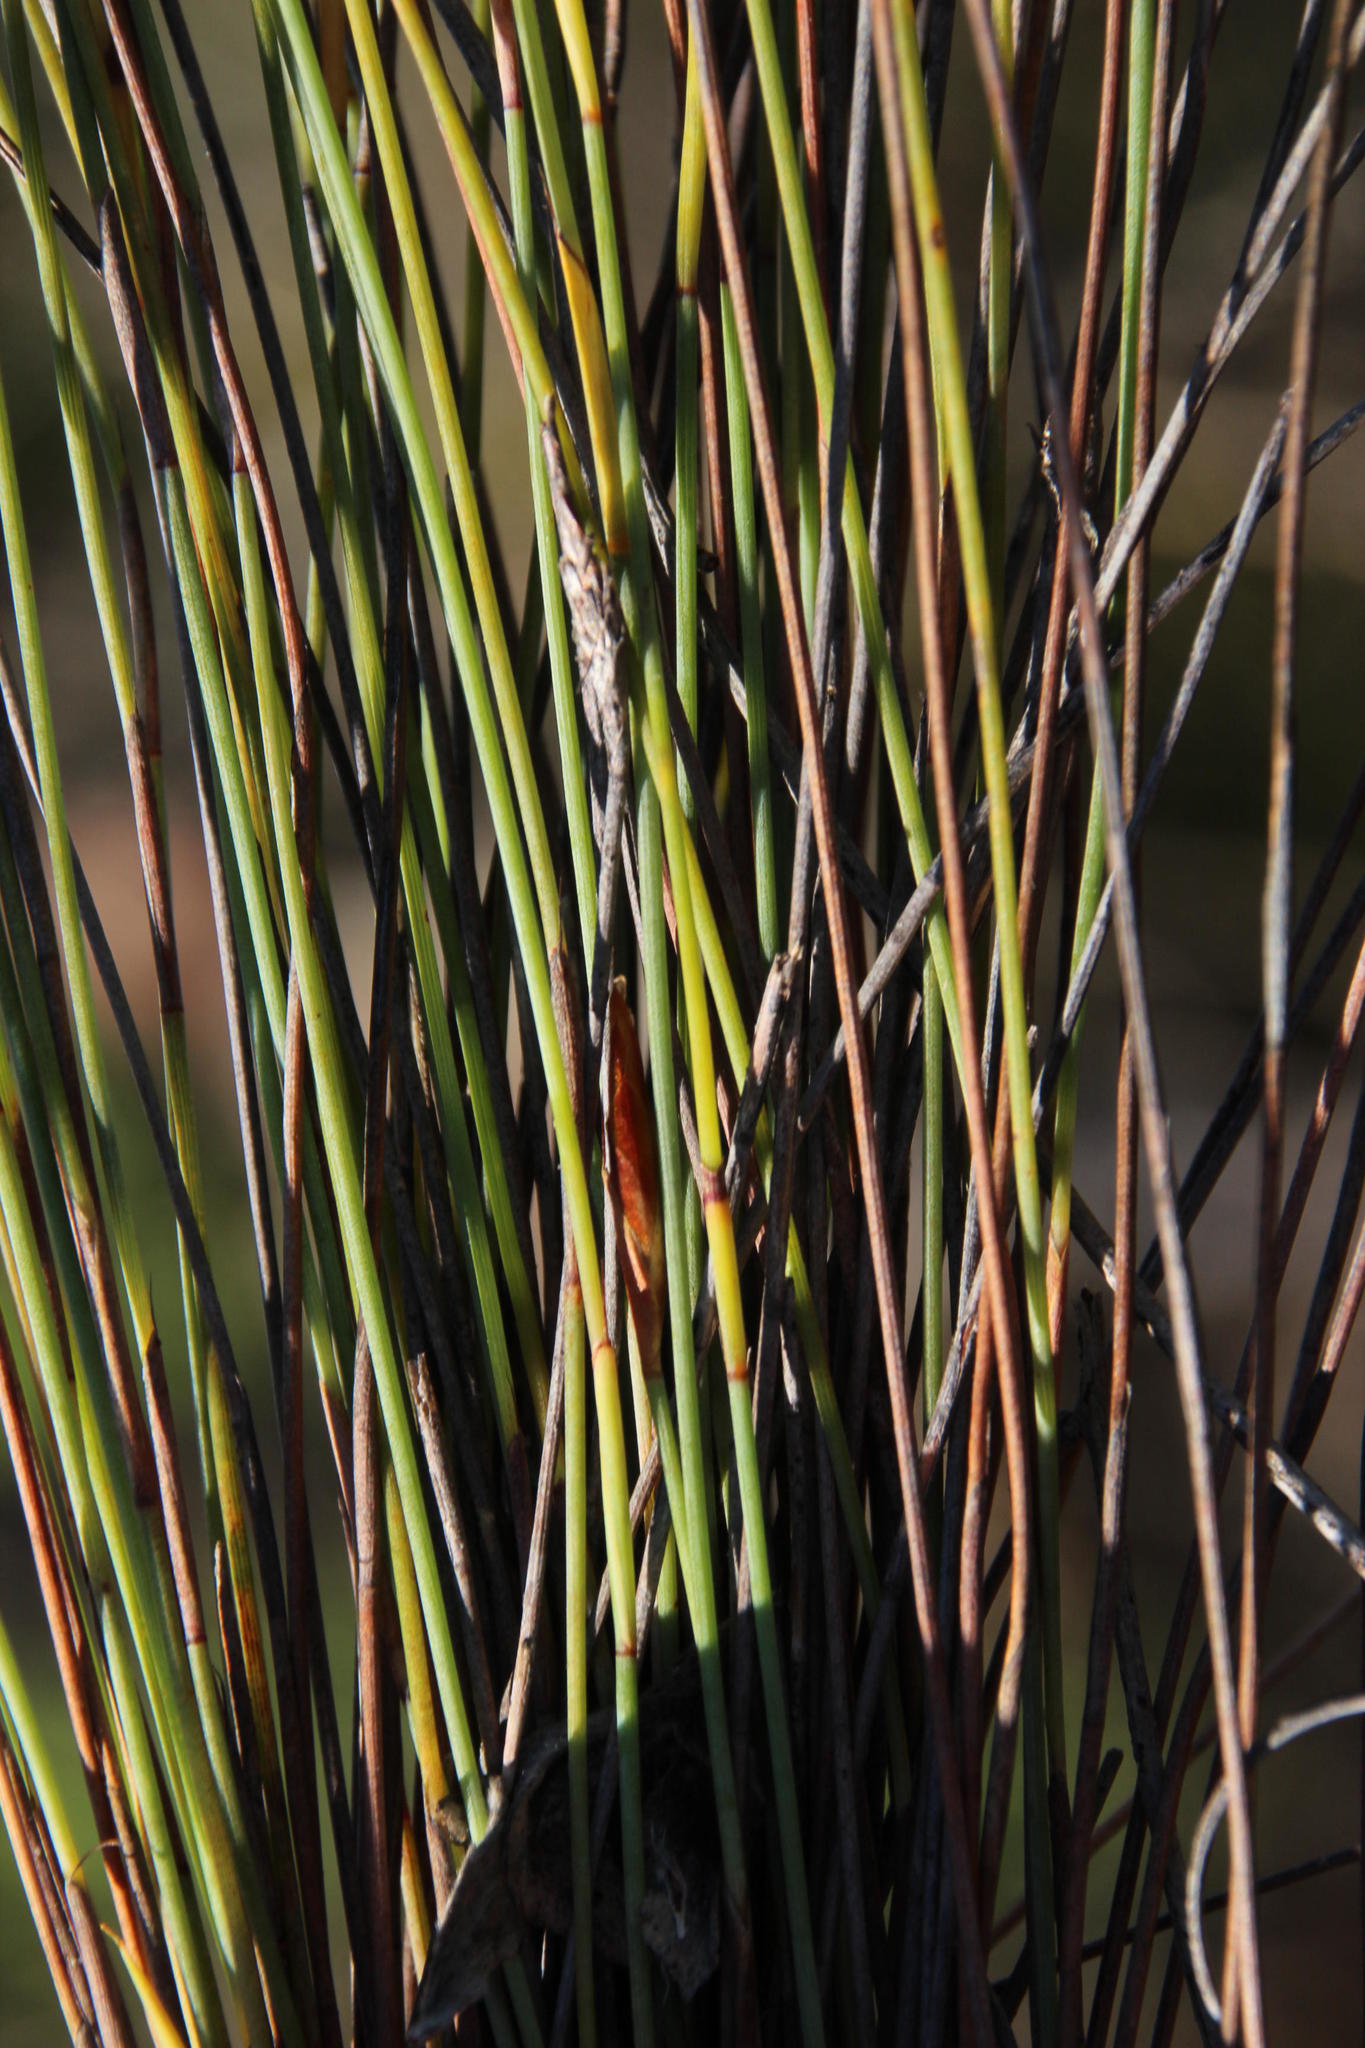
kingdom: Plantae
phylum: Tracheophyta
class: Liliopsida
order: Poales
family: Restionaceae
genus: Hypodiscus
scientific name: Hypodiscus striatus
